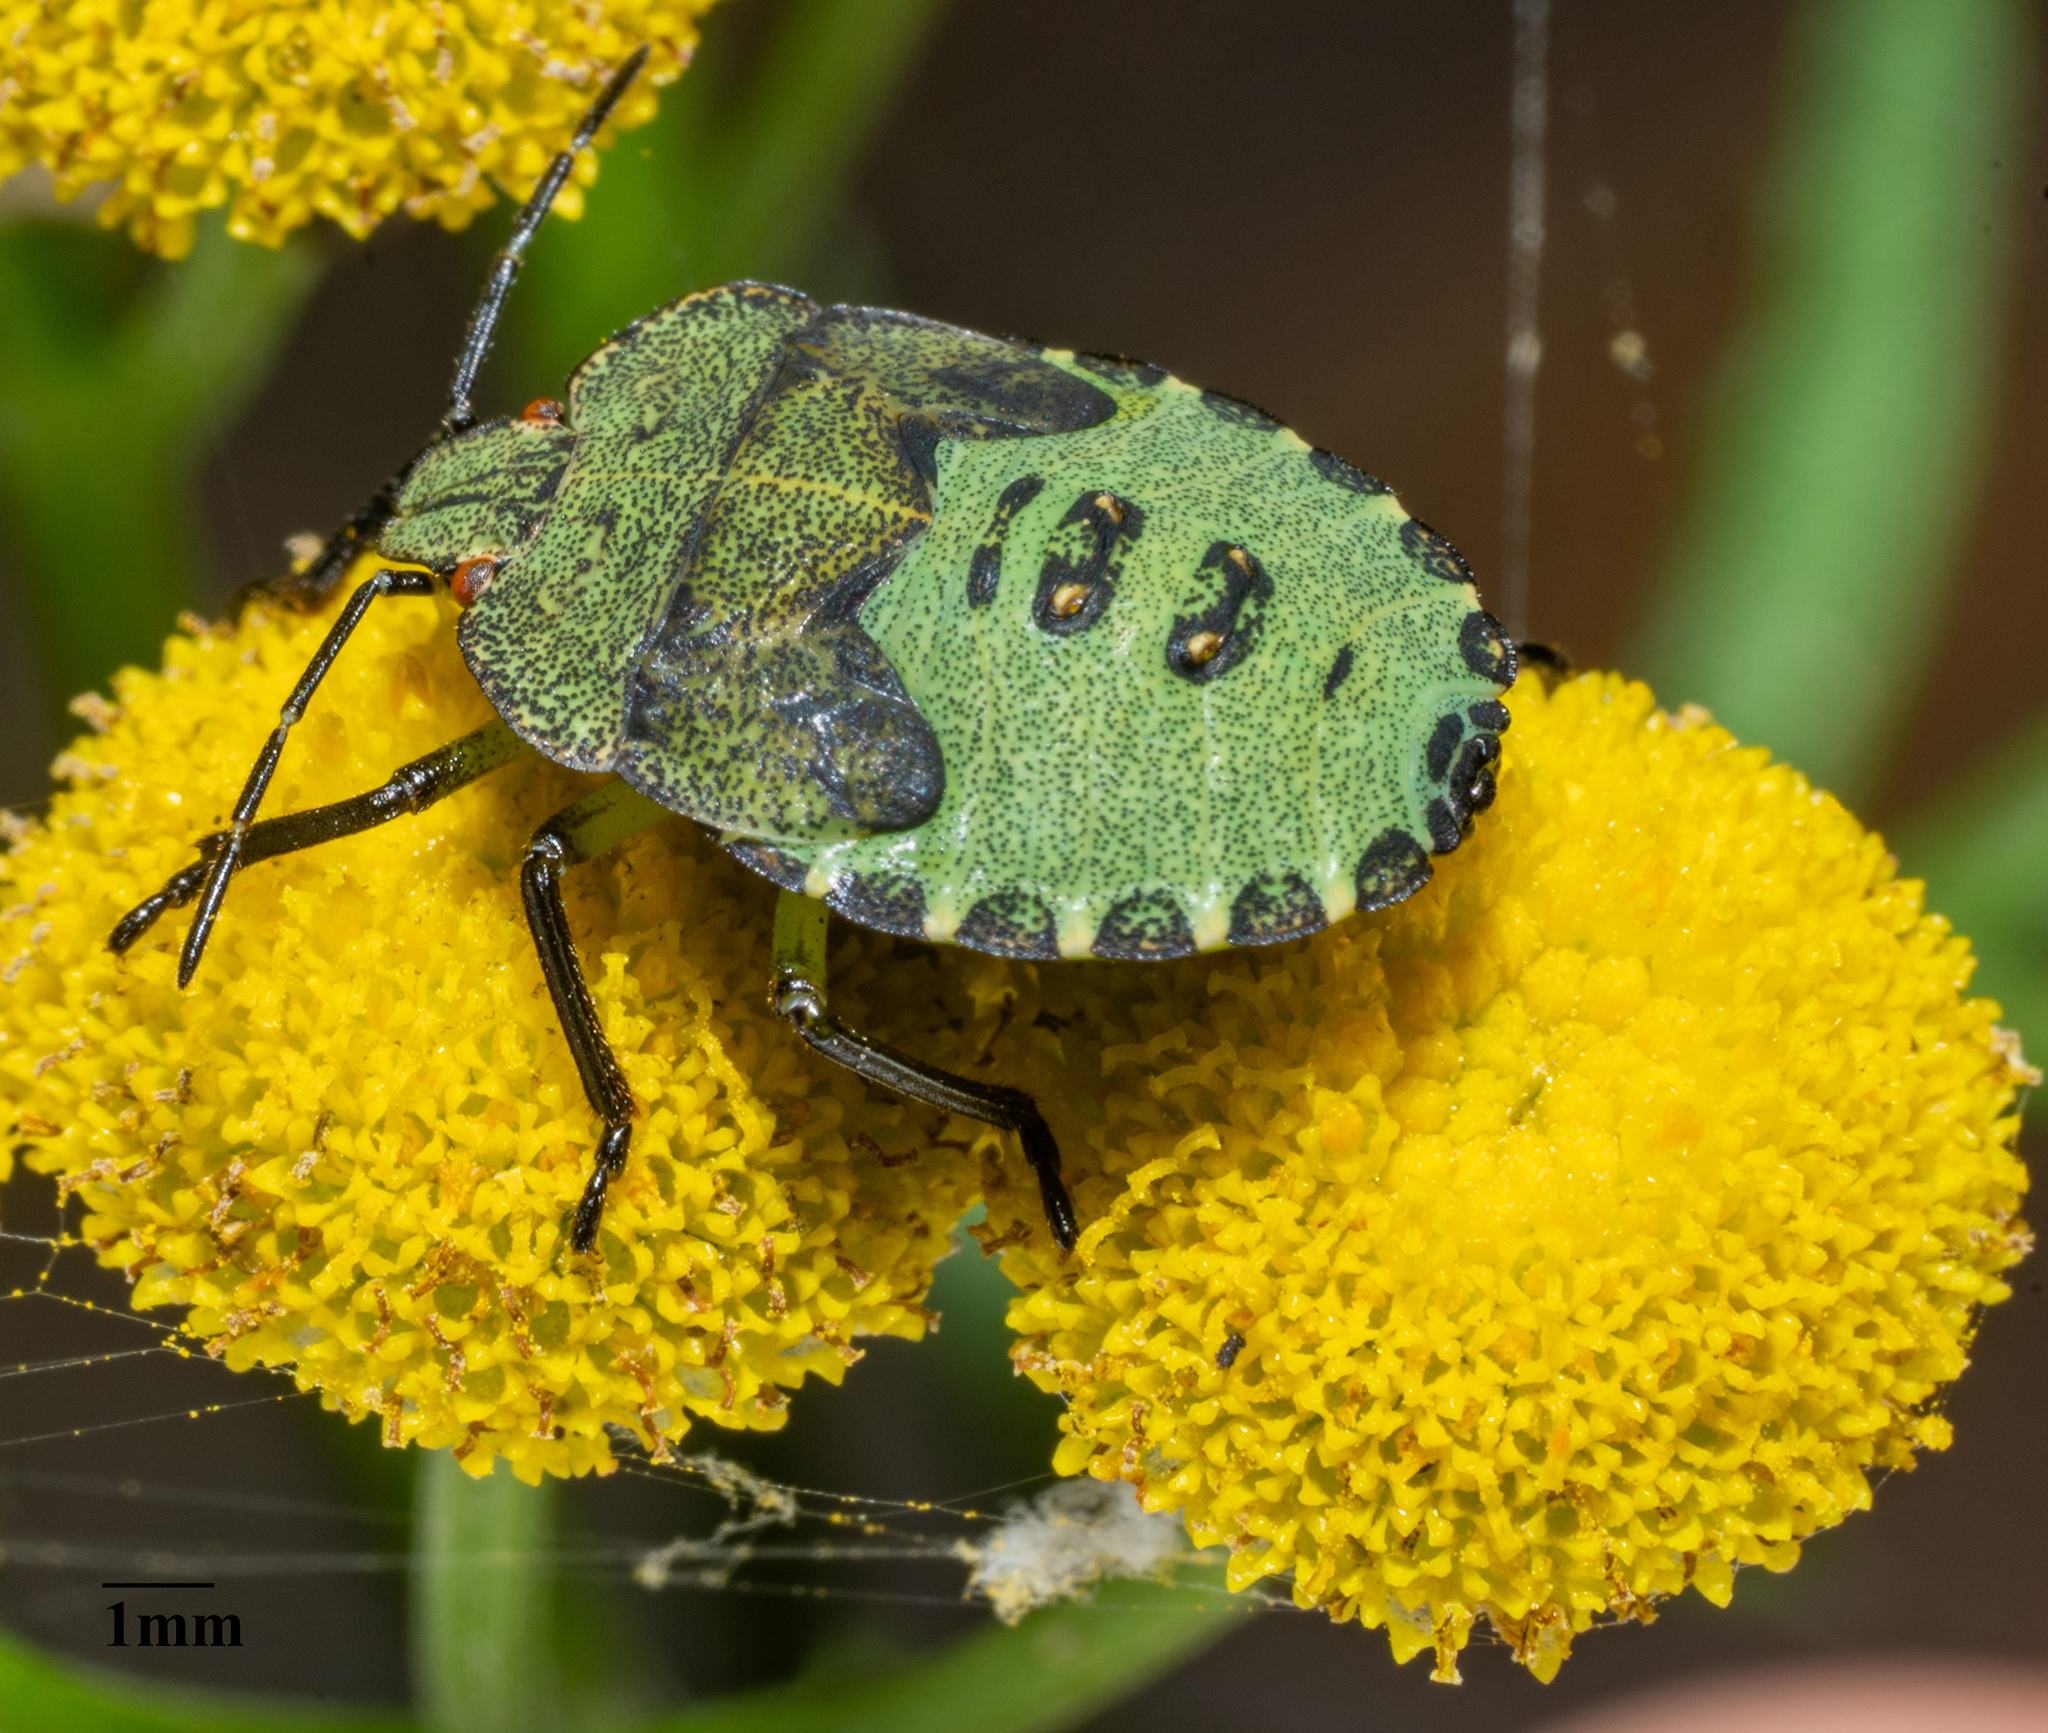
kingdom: Animalia
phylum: Arthropoda
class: Insecta
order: Hemiptera
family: Pentatomidae
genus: Palomena
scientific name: Palomena prasina
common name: Green shieldbug
